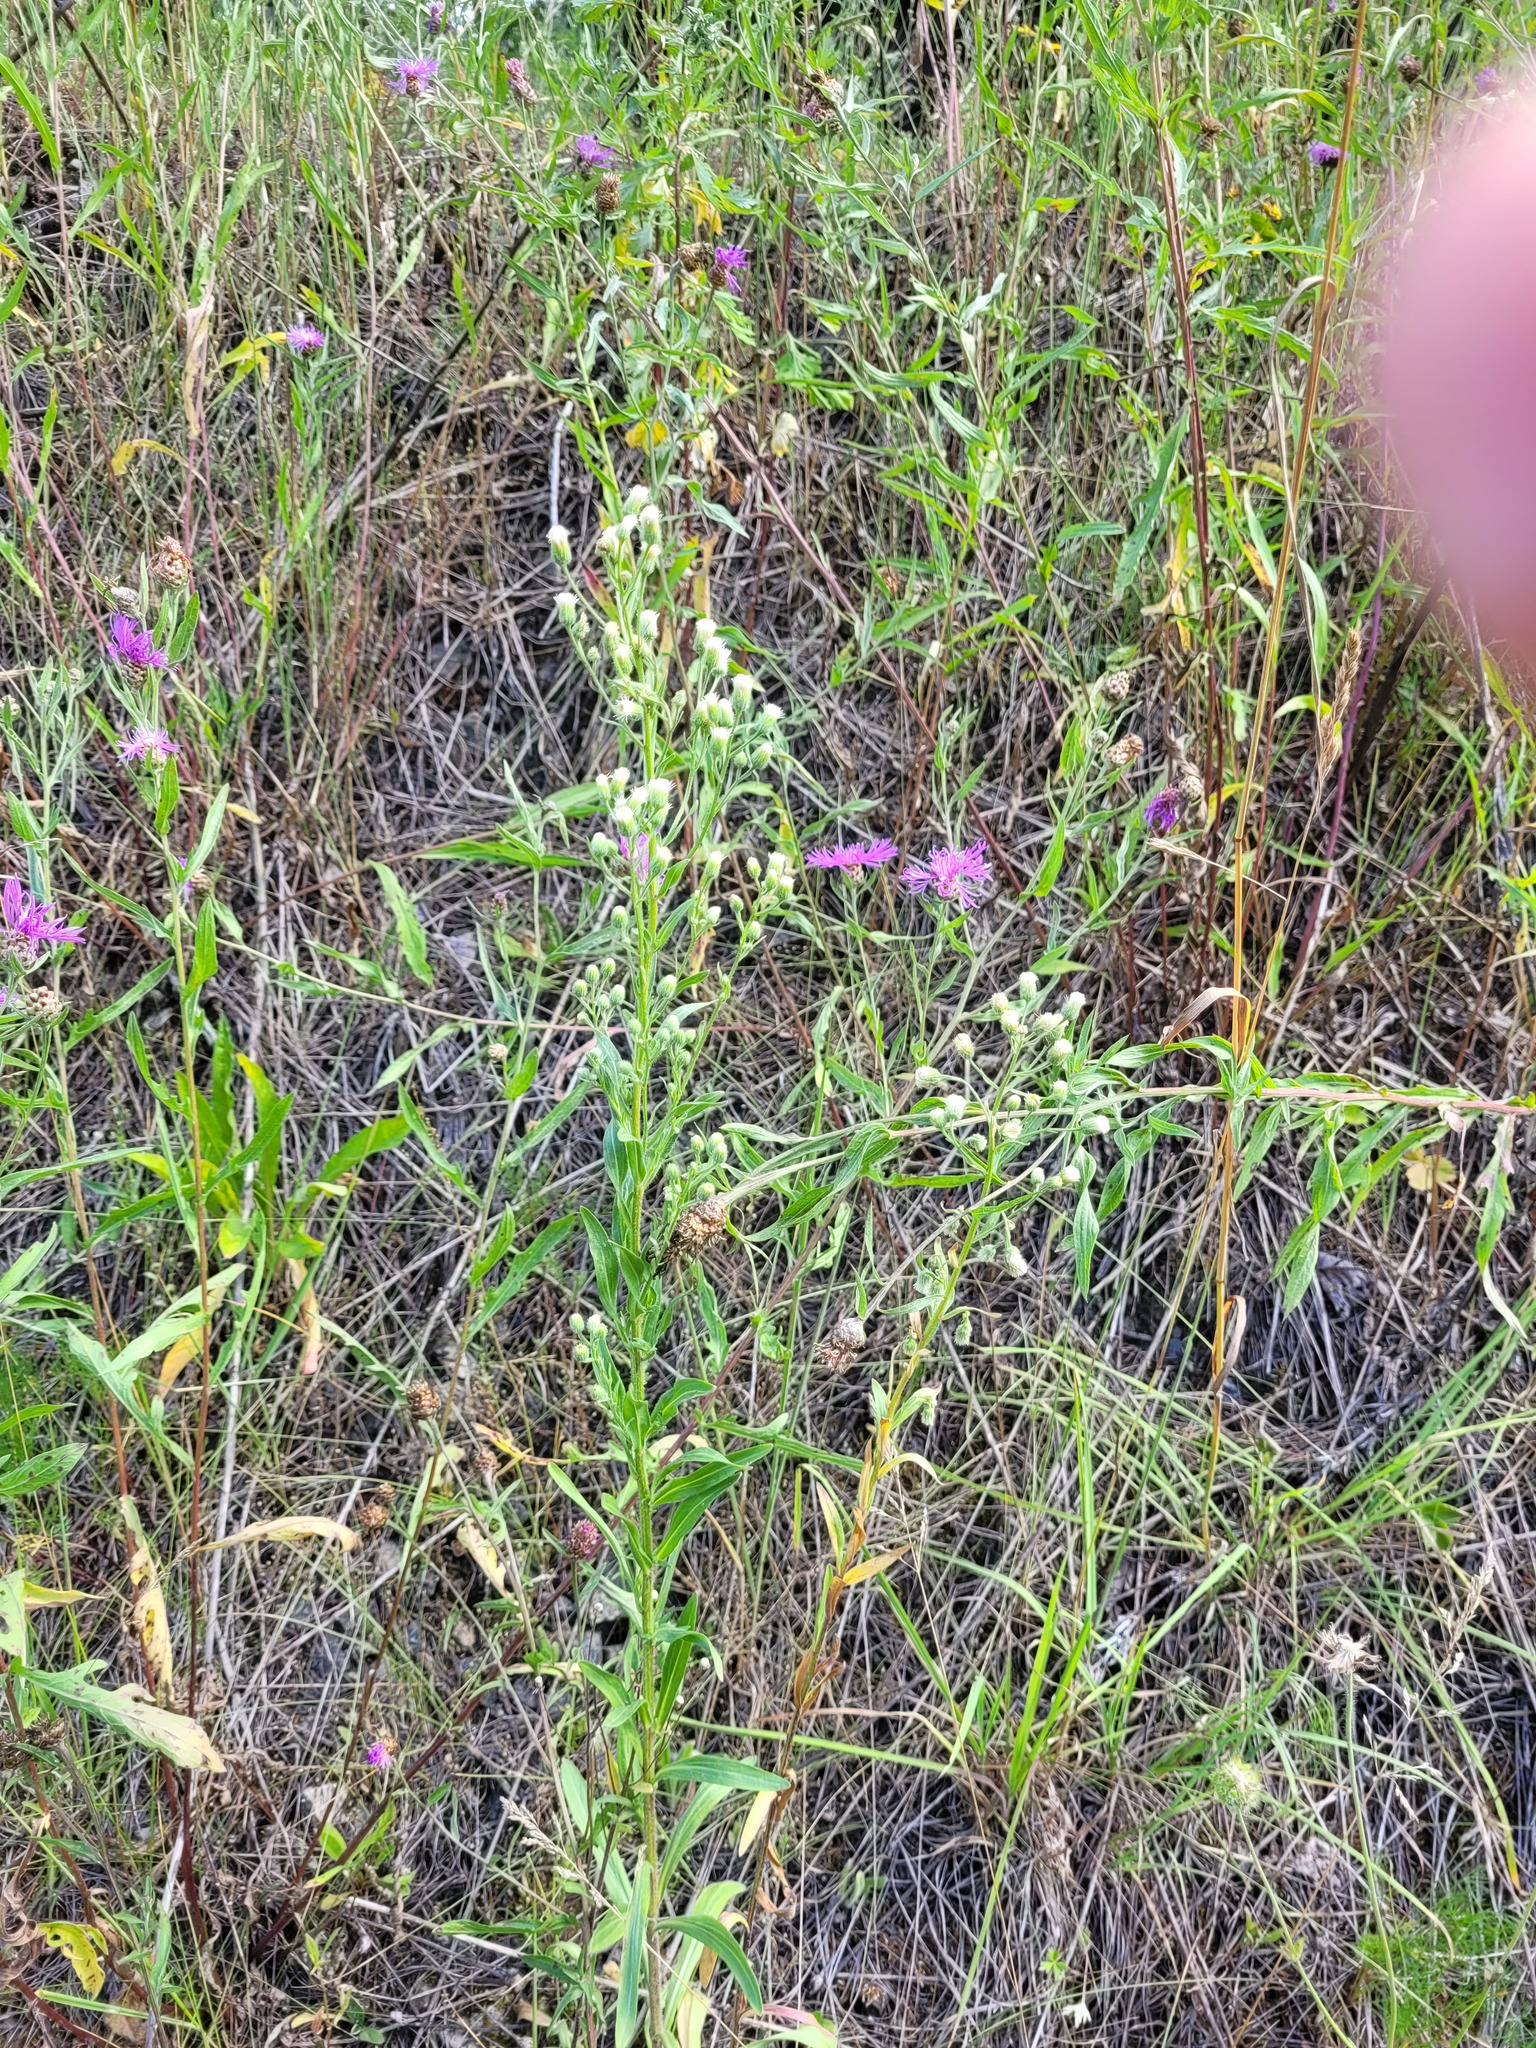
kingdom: Plantae
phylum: Tracheophyta
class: Magnoliopsida
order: Asterales
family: Asteraceae
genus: Erigeron
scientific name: Erigeron droebachiensis
